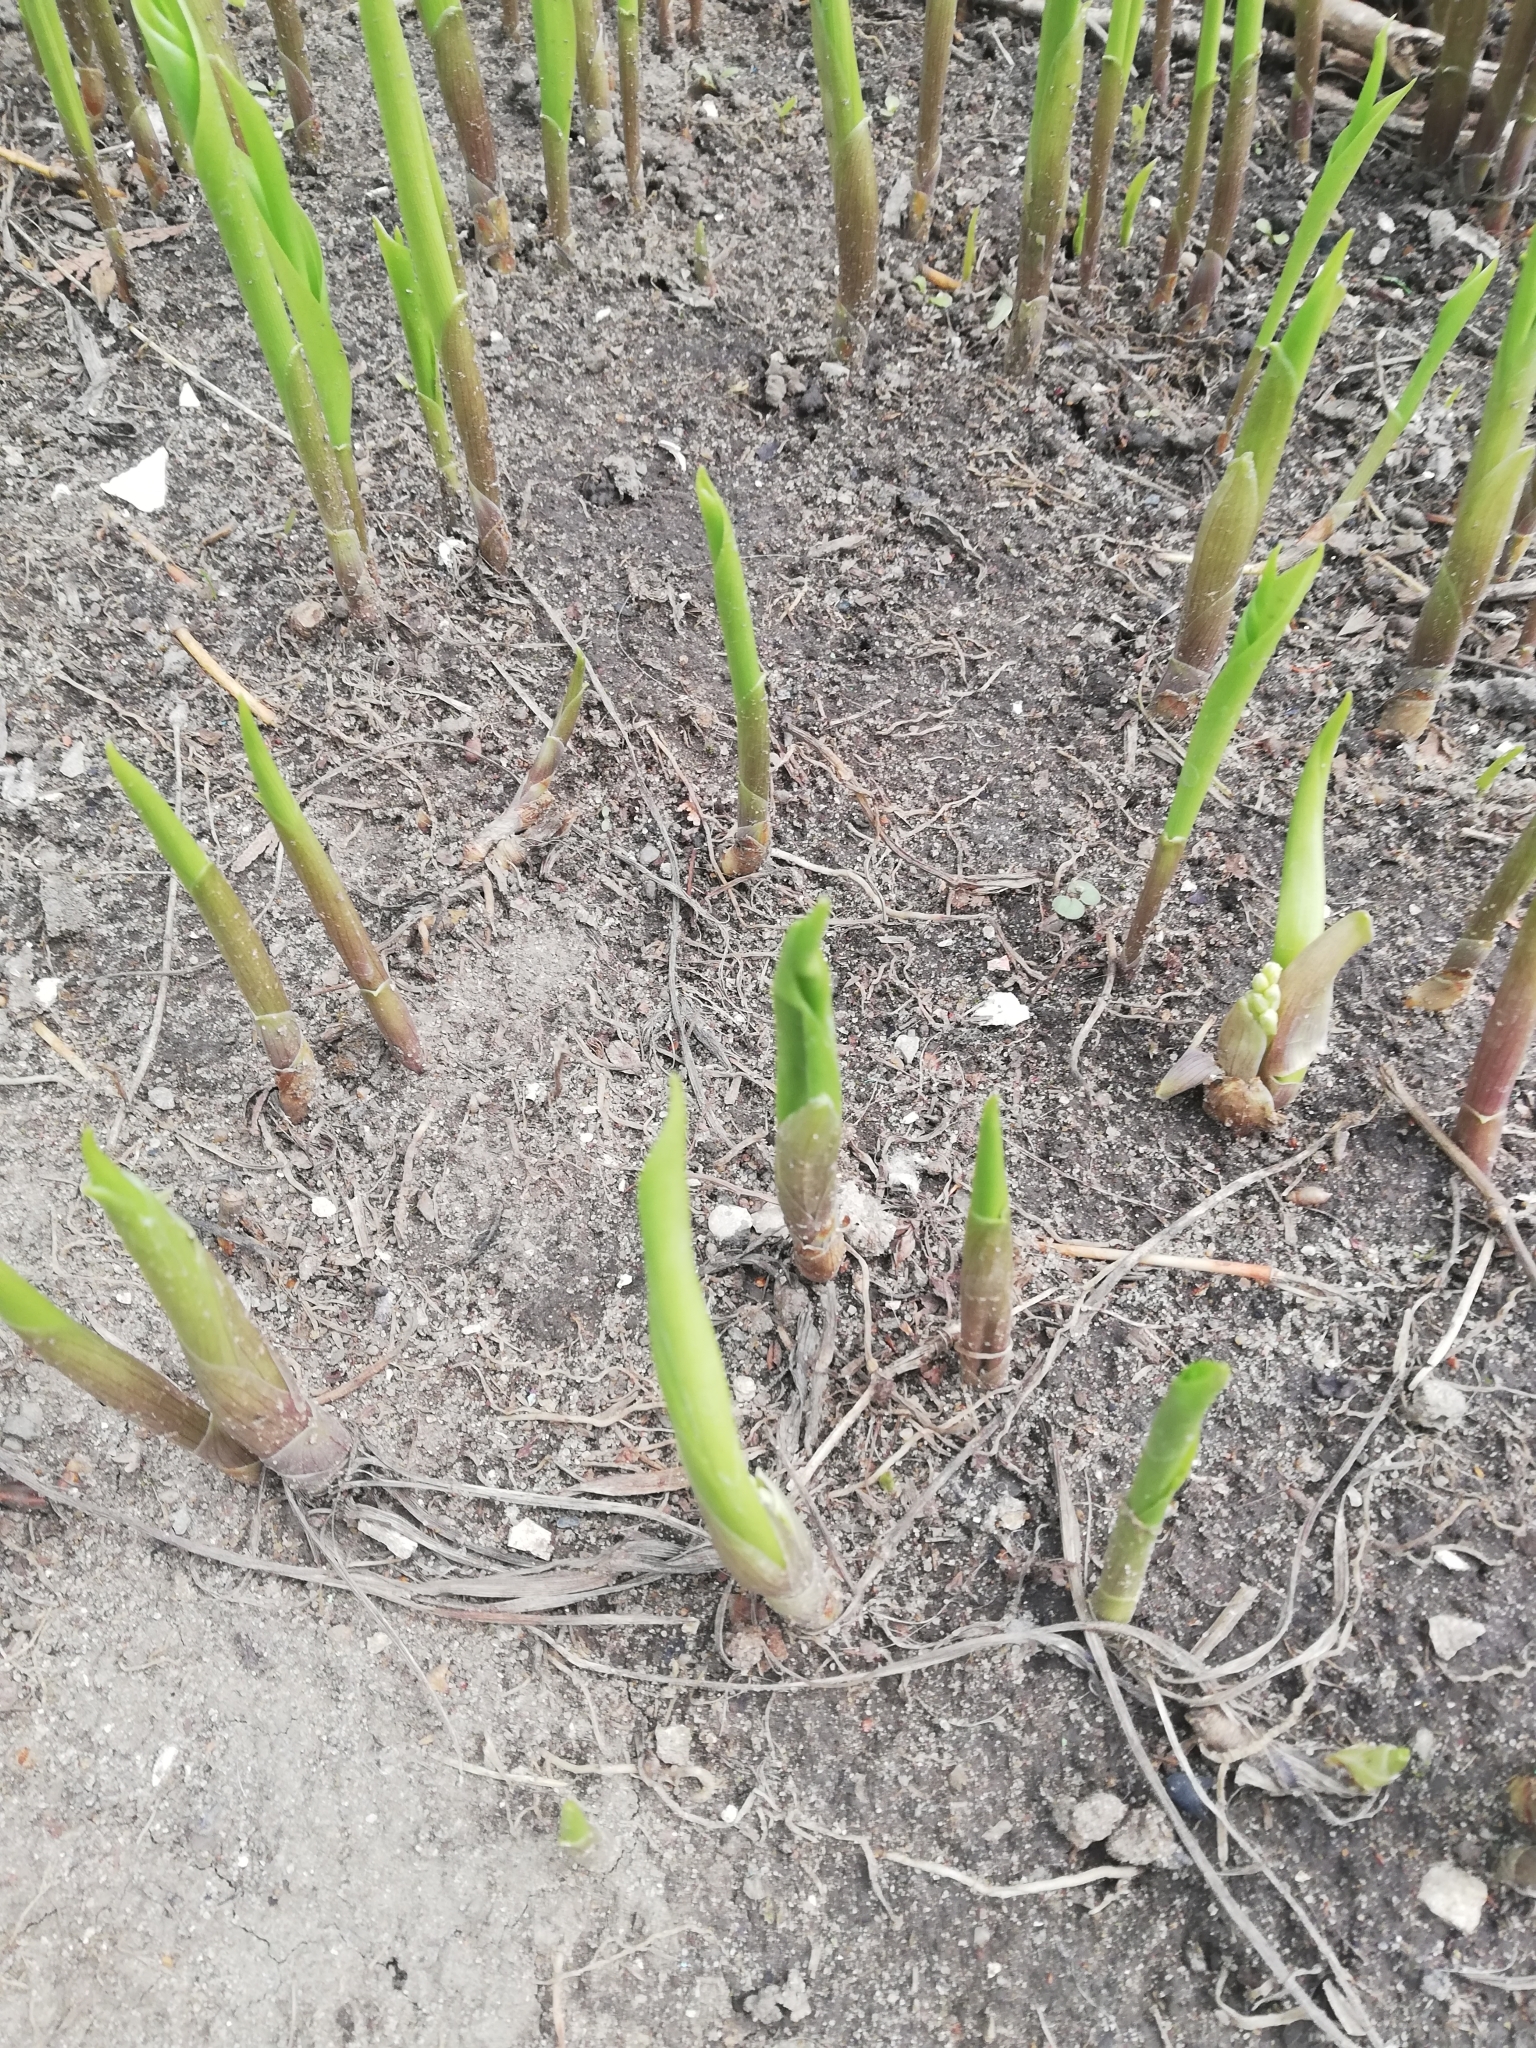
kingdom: Plantae
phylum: Tracheophyta
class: Liliopsida
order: Asparagales
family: Asparagaceae
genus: Convallaria
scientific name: Convallaria majalis
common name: Lily-of-the-valley
